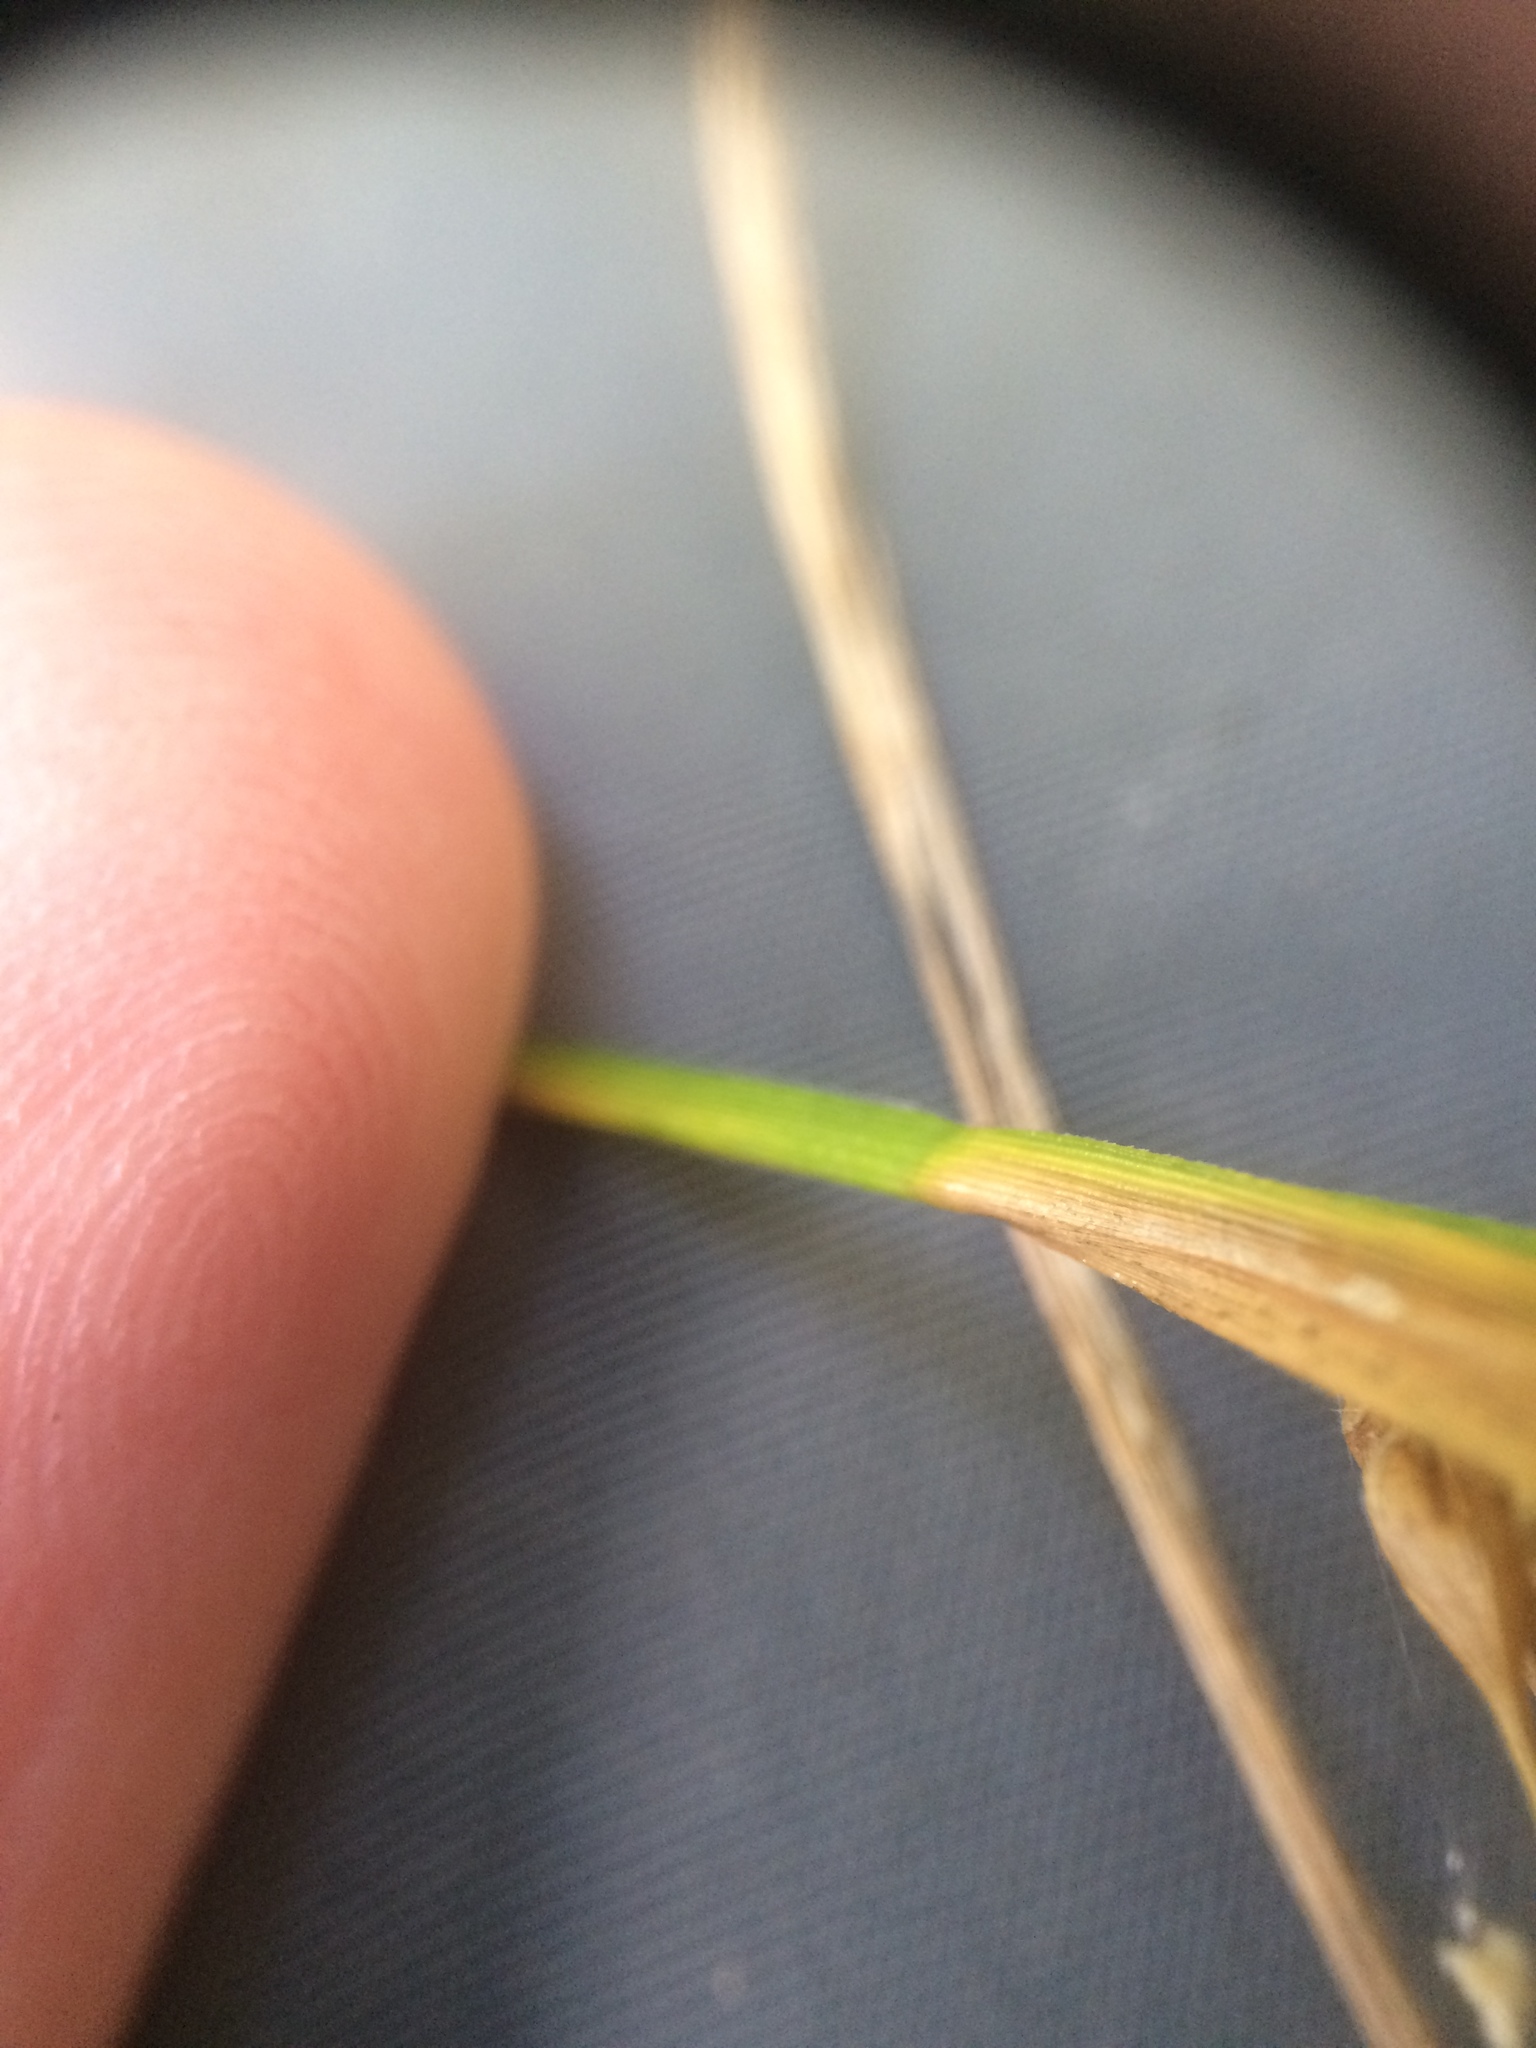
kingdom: Plantae
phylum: Tracheophyta
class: Liliopsida
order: Poales
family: Cyperaceae
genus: Carex
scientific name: Carex vesicaria
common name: Bladder-sedge
